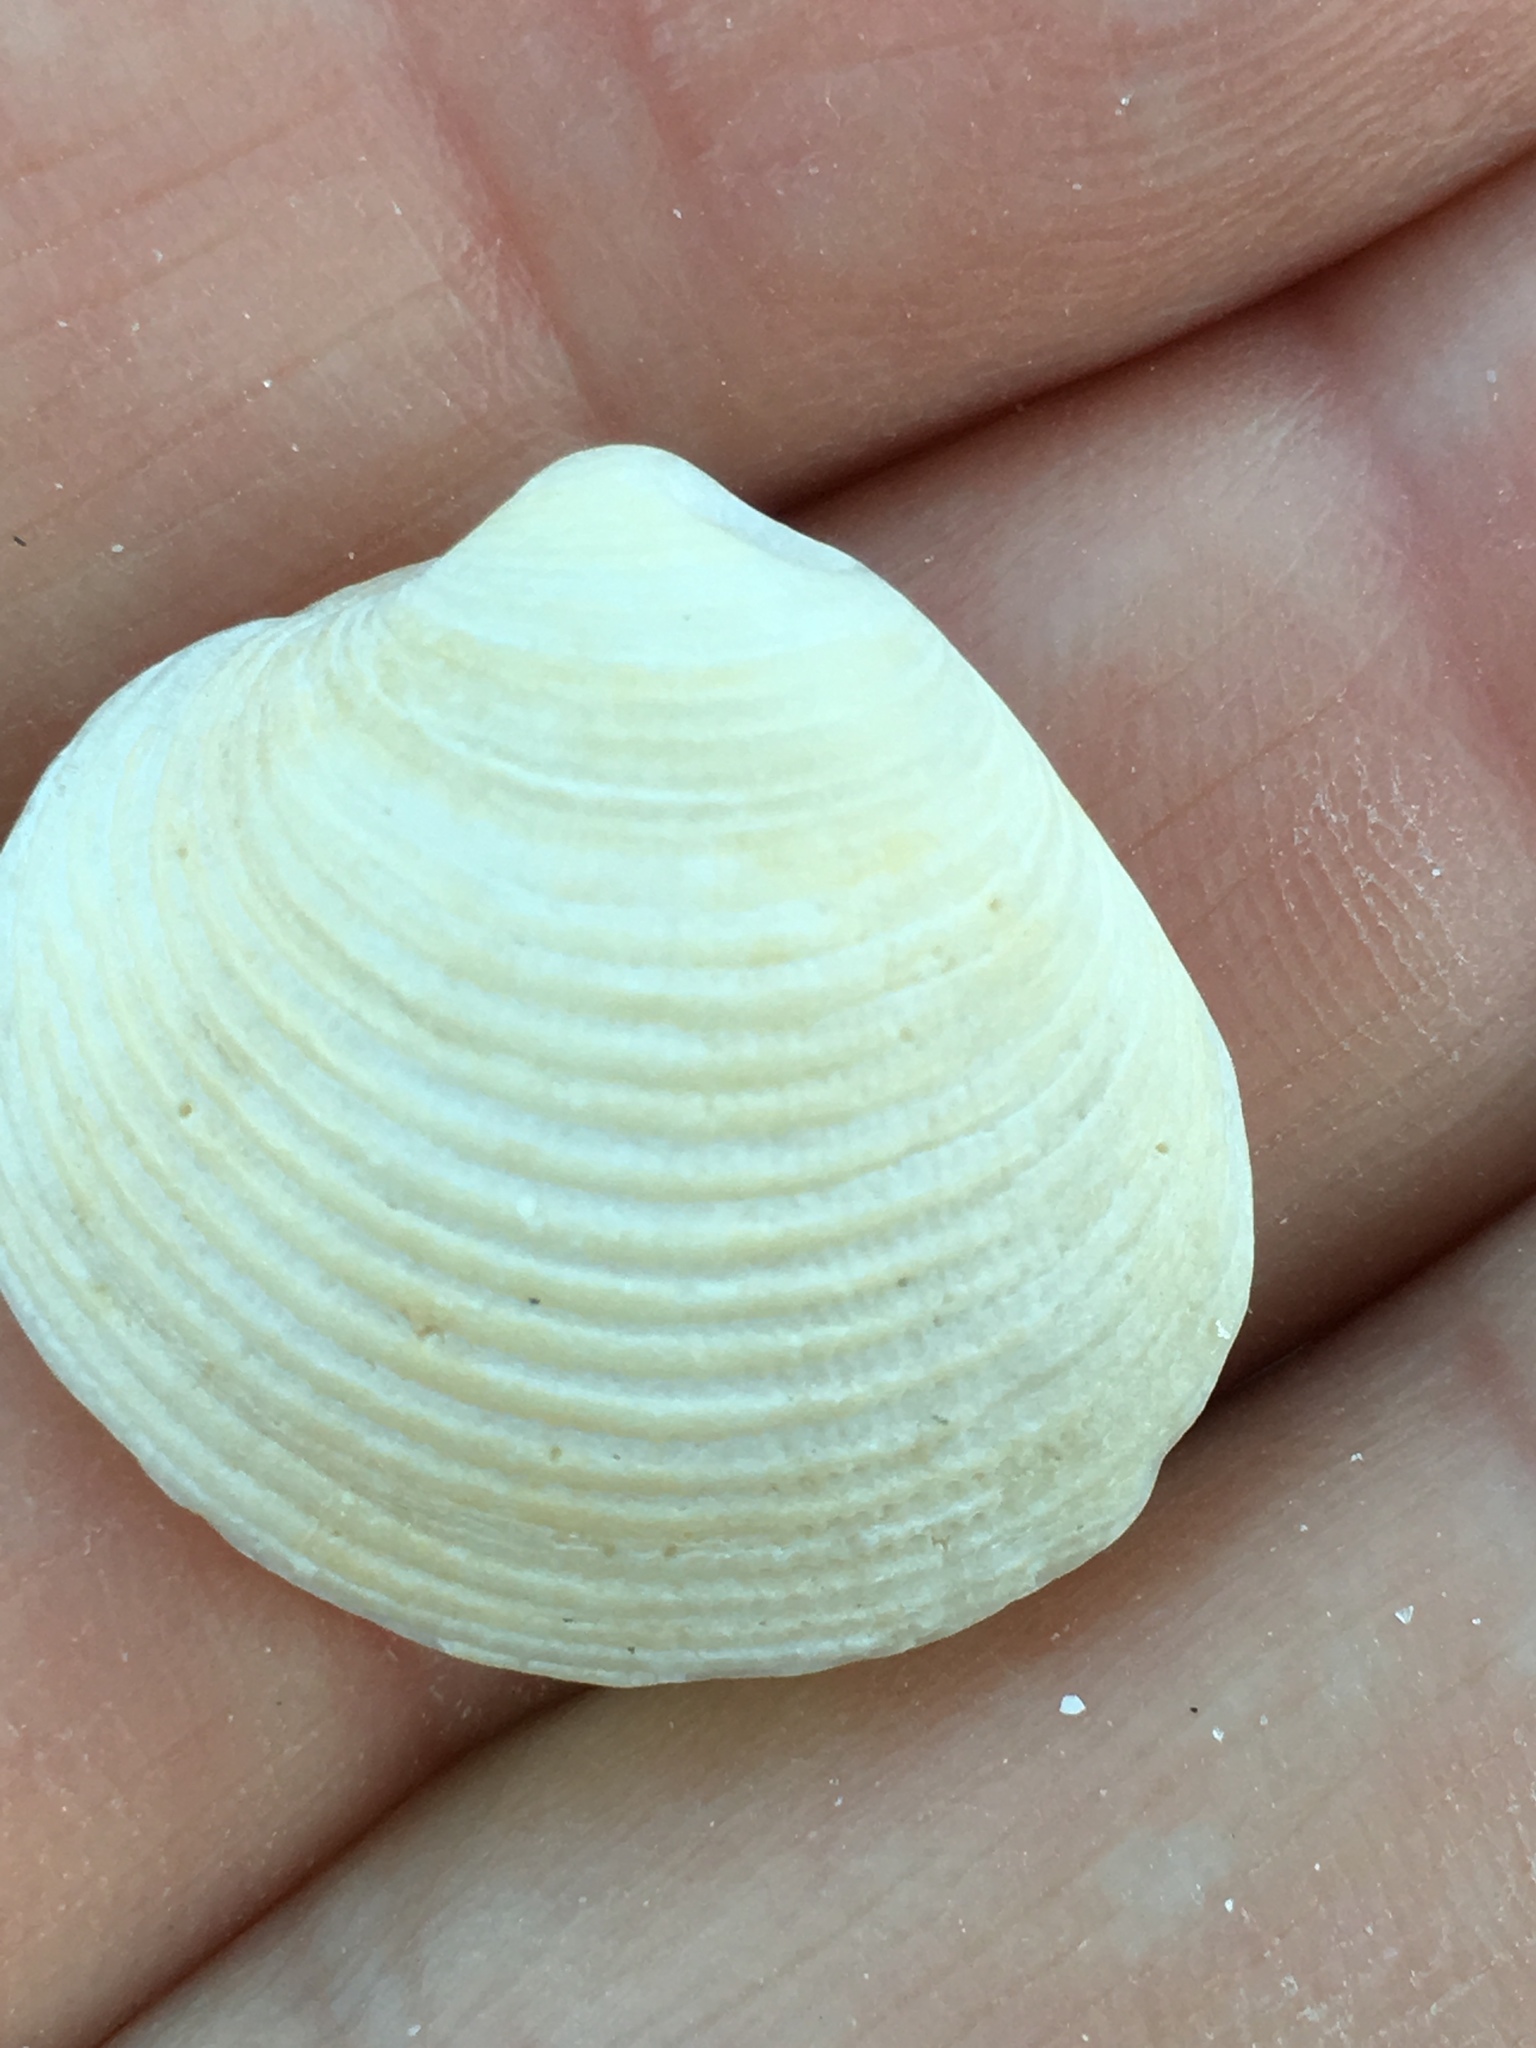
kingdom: Animalia
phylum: Mollusca
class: Bivalvia
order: Venerida
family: Veneridae
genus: Chionopsis
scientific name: Chionopsis intapurpurea
